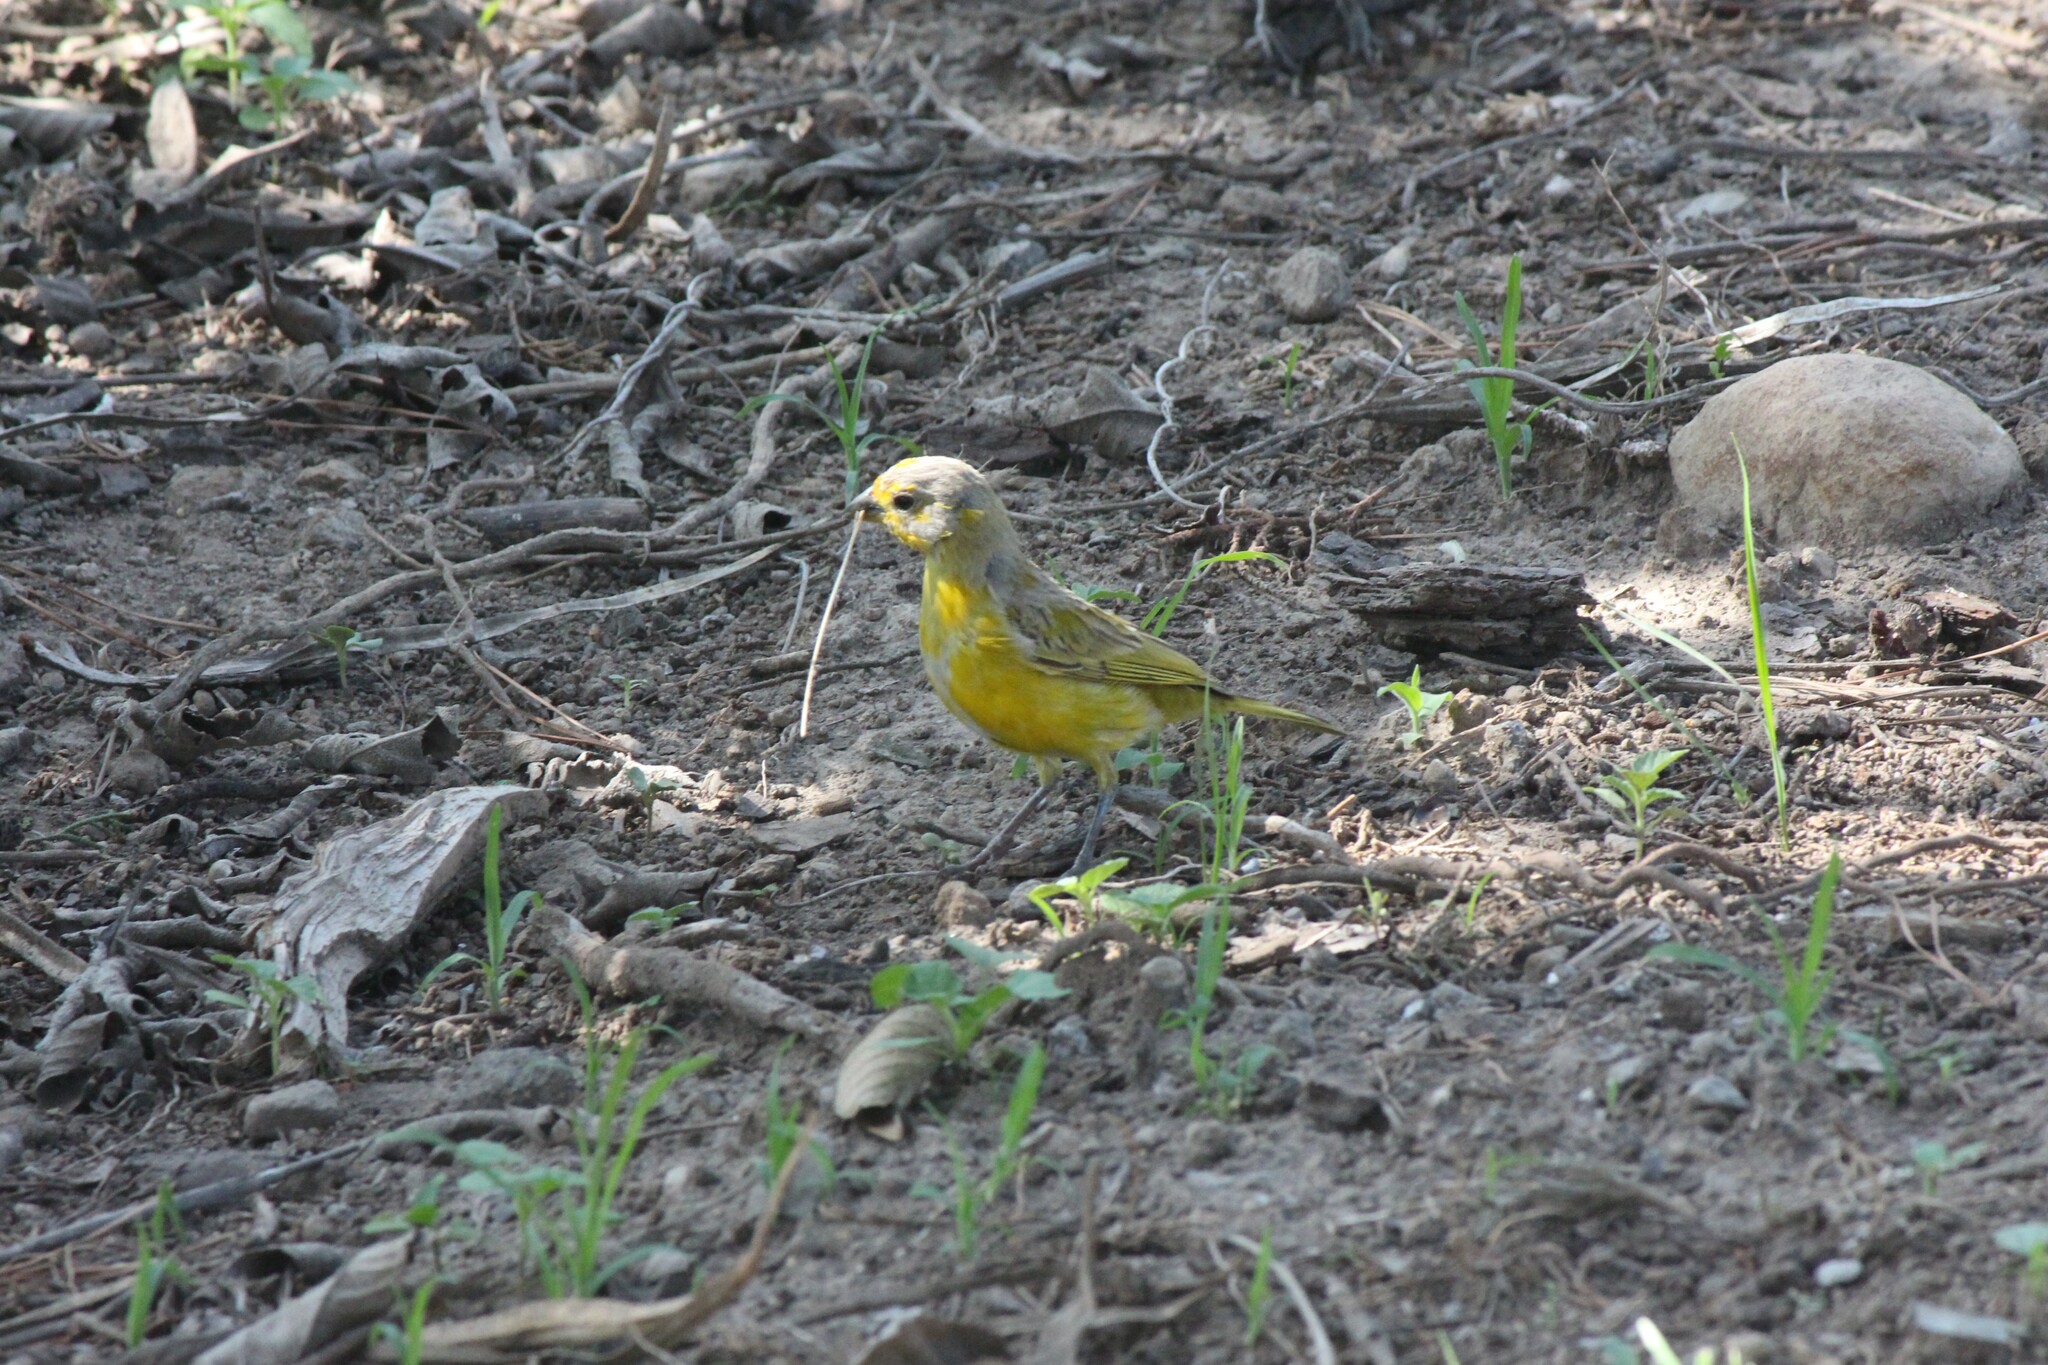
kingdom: Animalia
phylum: Chordata
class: Aves
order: Passeriformes
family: Thraupidae
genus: Sicalis
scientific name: Sicalis flaveola
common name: Saffron finch
